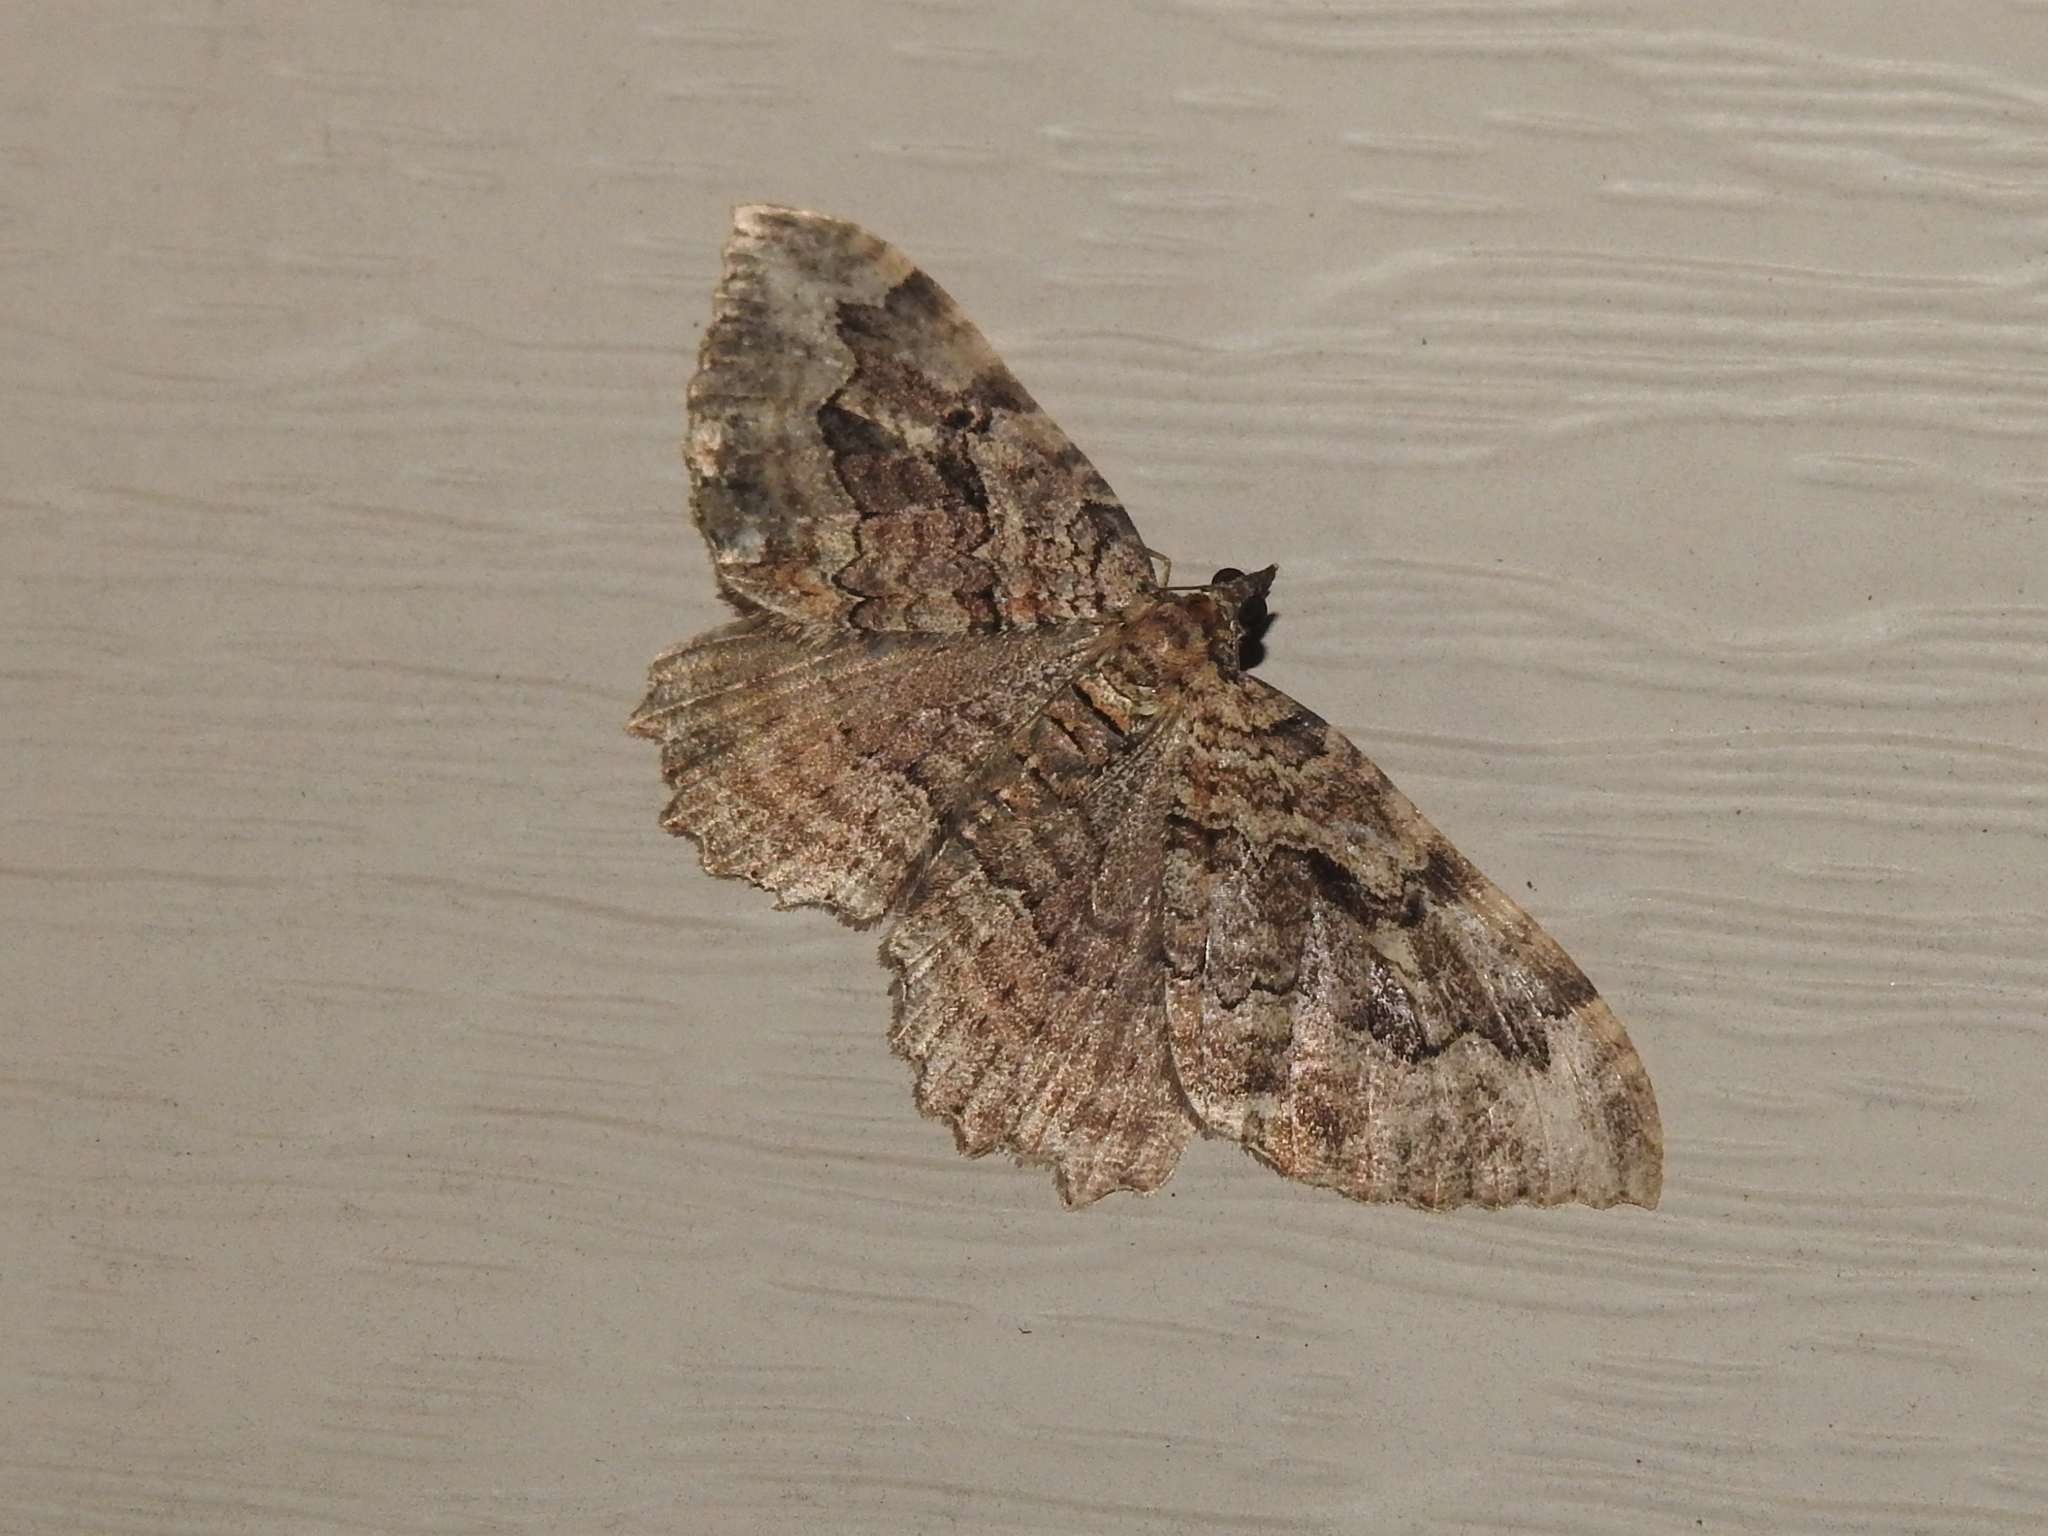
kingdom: Animalia
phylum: Arthropoda
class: Insecta
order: Lepidoptera
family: Geometridae
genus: Rheumaptera
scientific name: Rheumaptera
